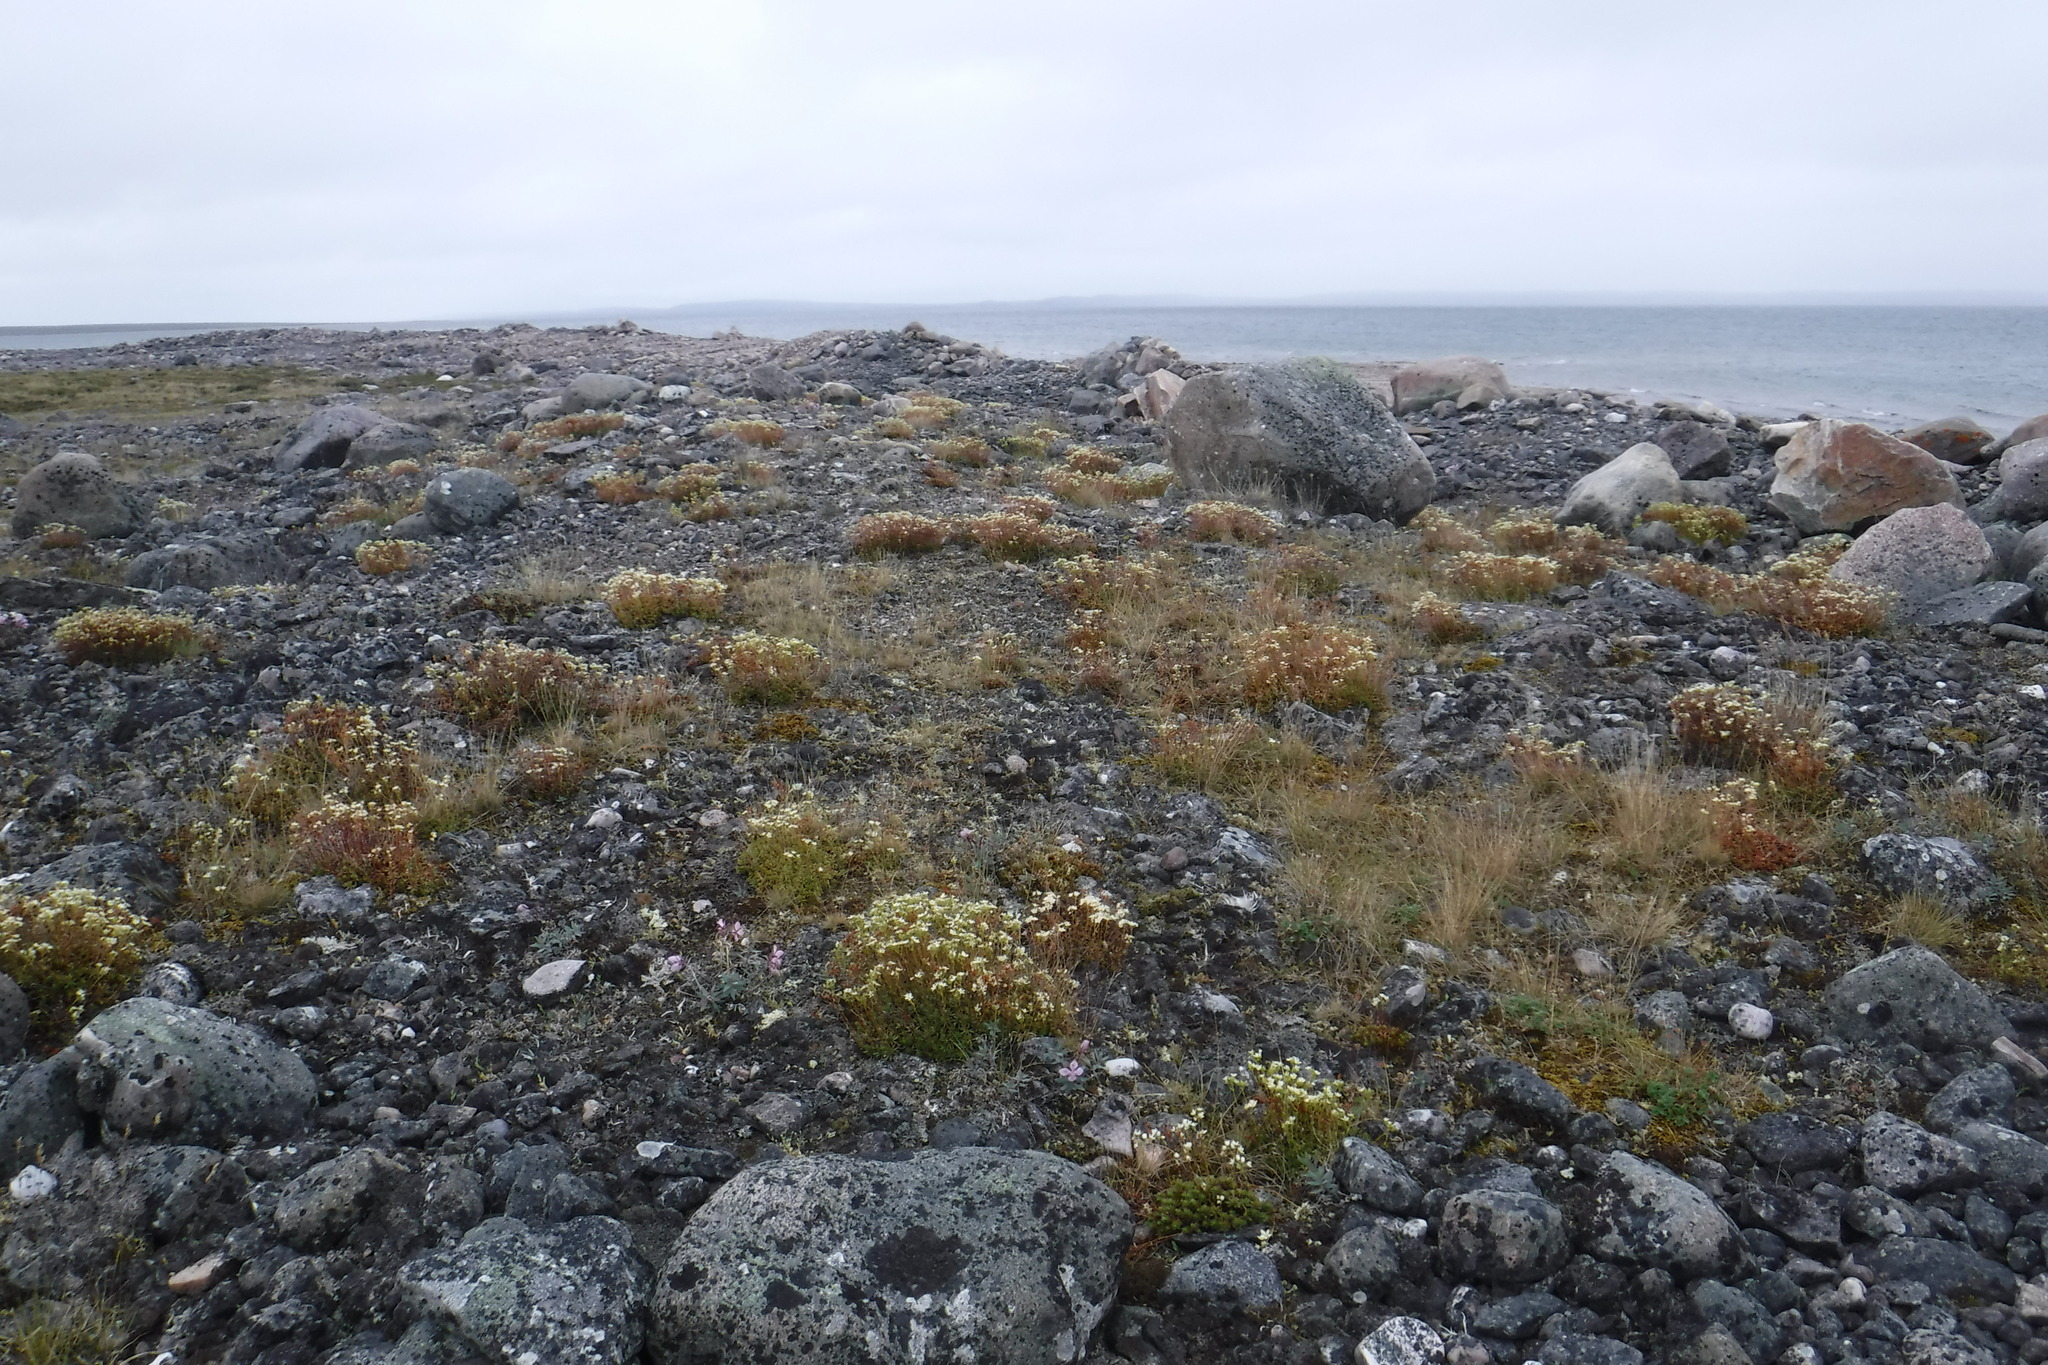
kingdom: Plantae
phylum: Tracheophyta
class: Magnoliopsida
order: Saxifragales
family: Saxifragaceae
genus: Saxifraga
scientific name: Saxifraga tricuspidata
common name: Prickly saxifrage
